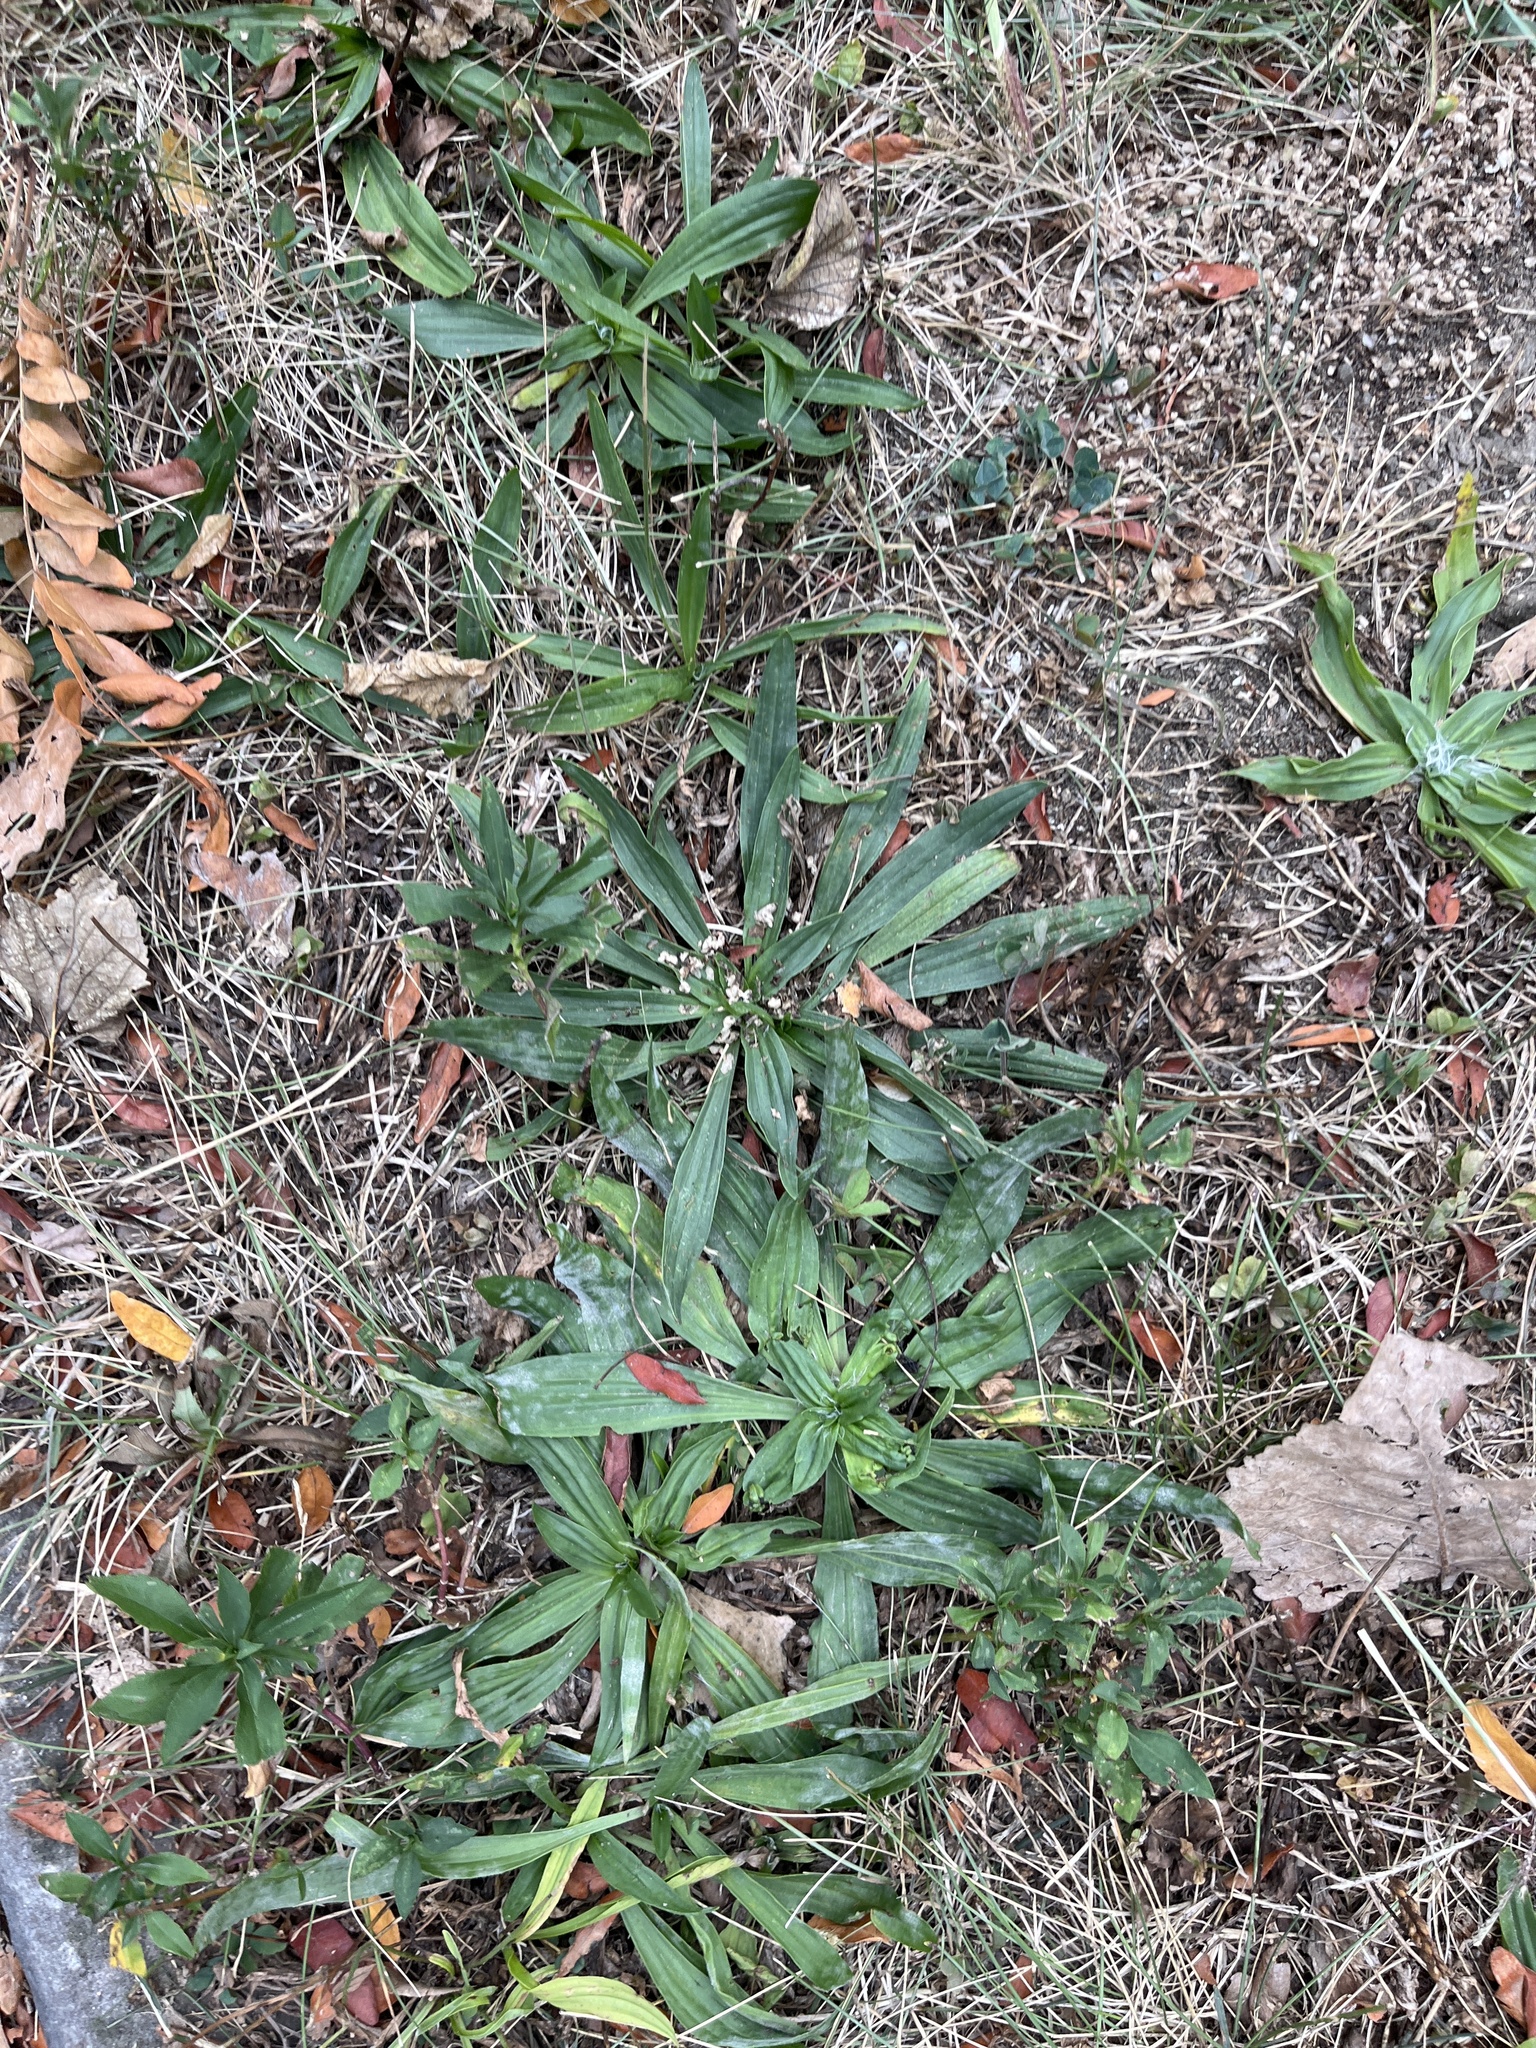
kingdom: Plantae
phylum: Tracheophyta
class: Magnoliopsida
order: Lamiales
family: Plantaginaceae
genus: Plantago
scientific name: Plantago lanceolata
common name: Ribwort plantain
